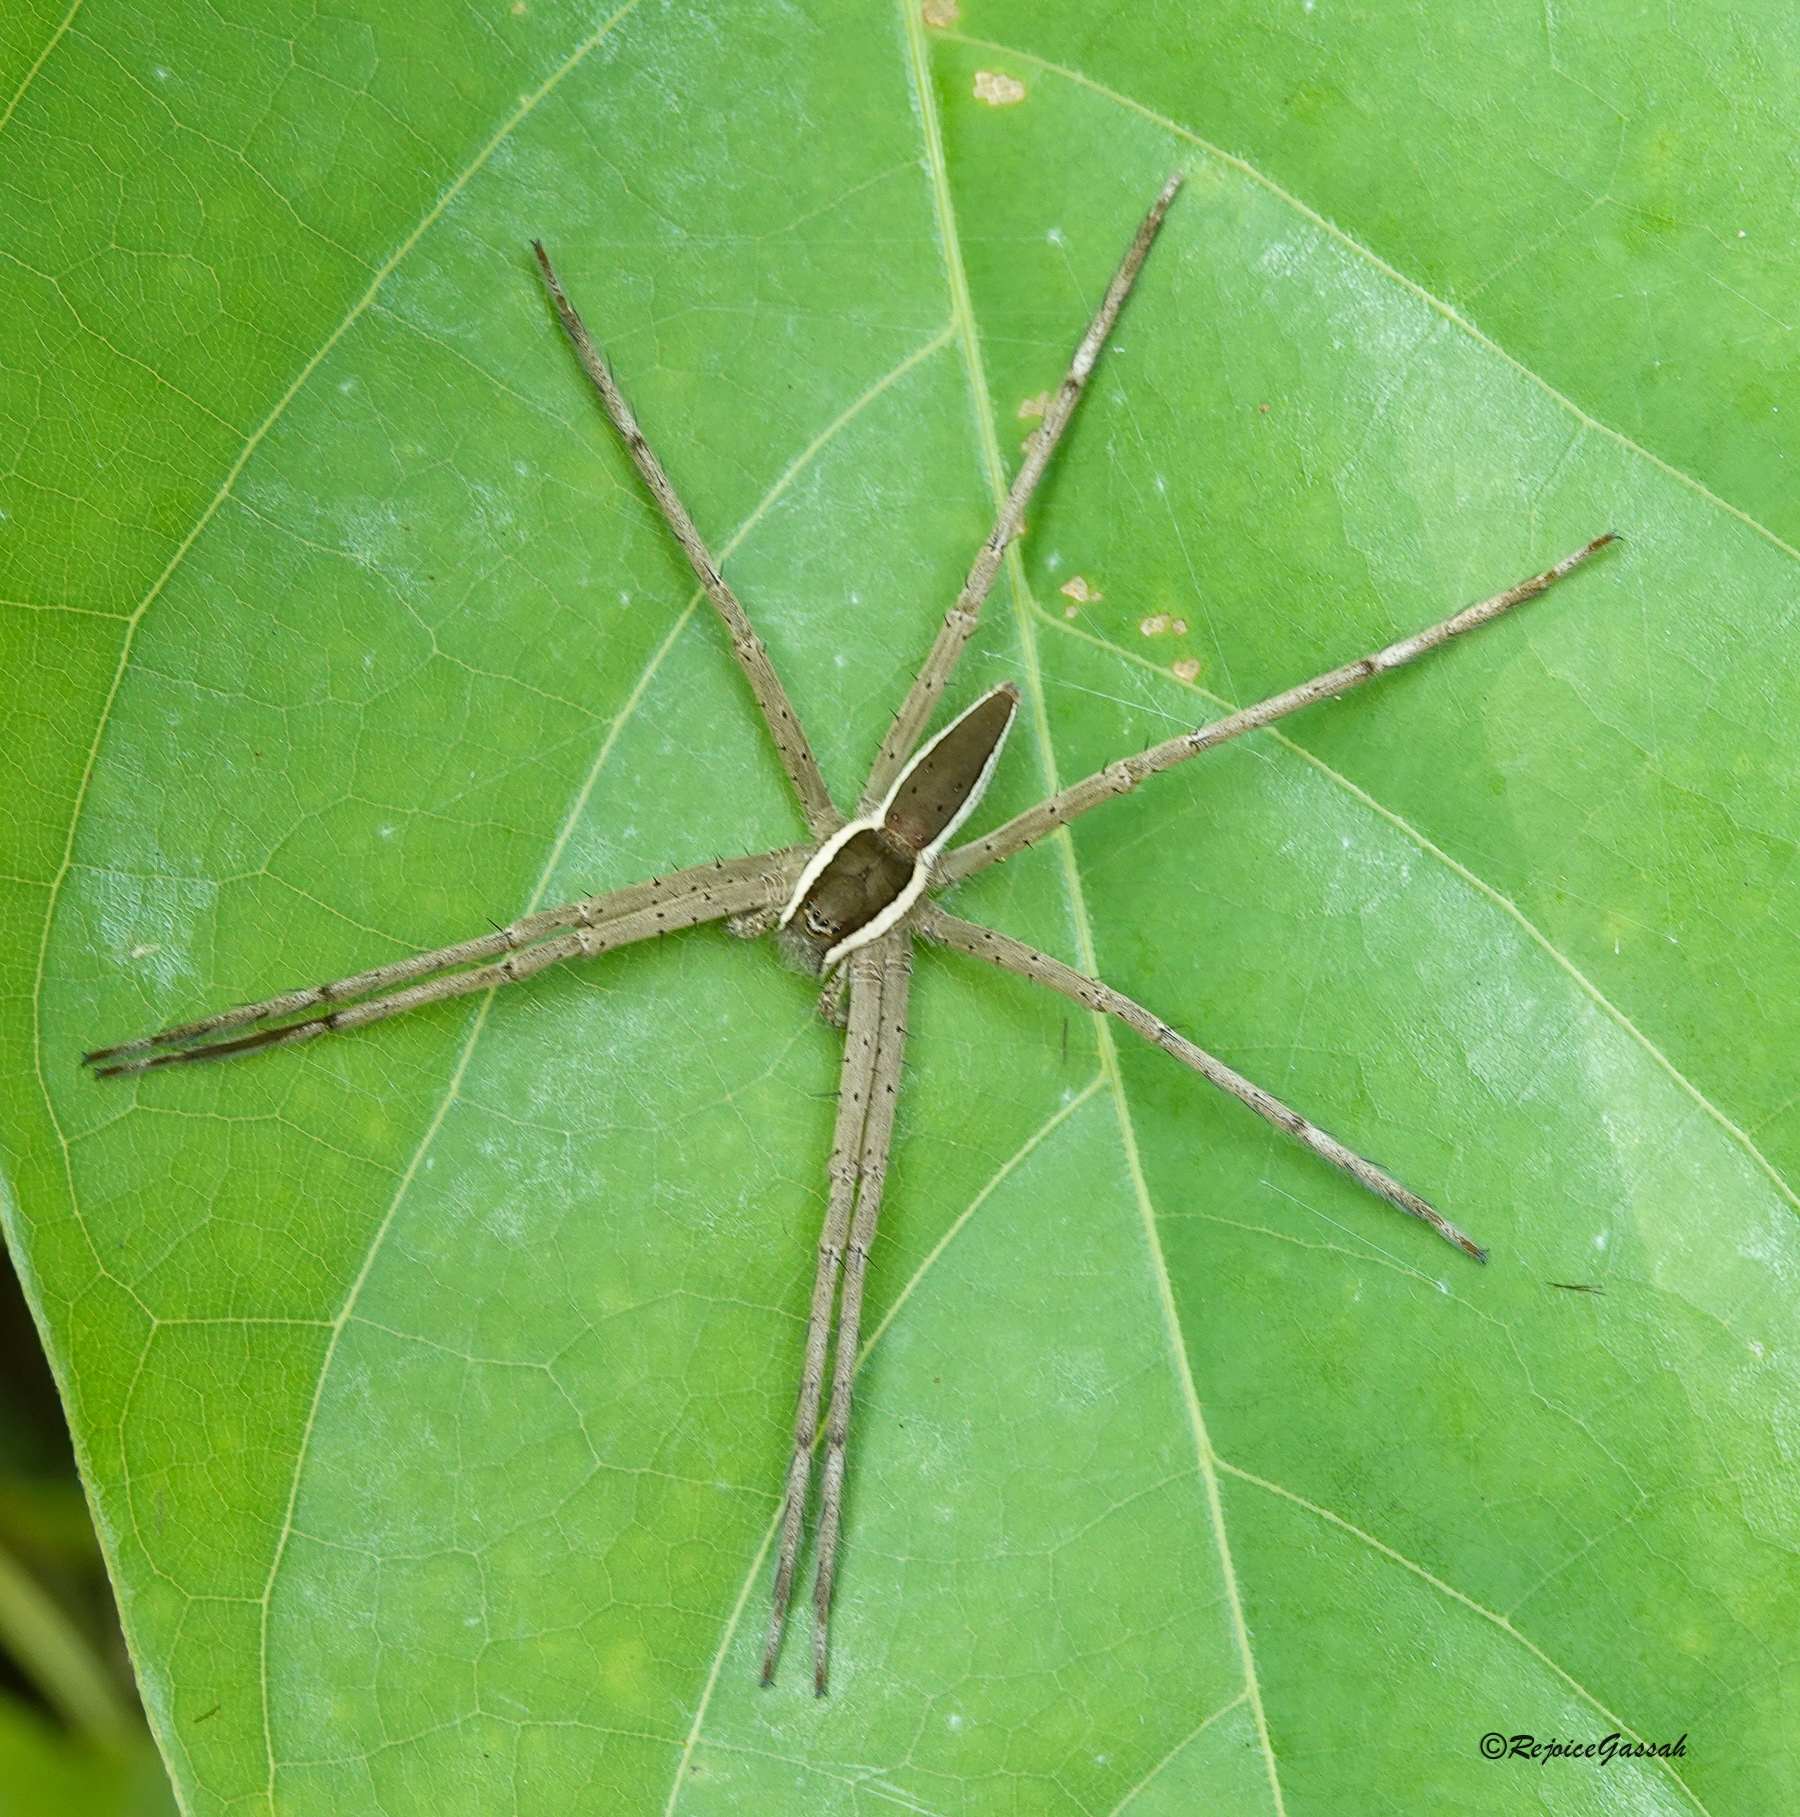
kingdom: Animalia
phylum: Arthropoda
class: Arachnida
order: Araneae
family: Pisauridae
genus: Nilus
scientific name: Nilus albocinctus
